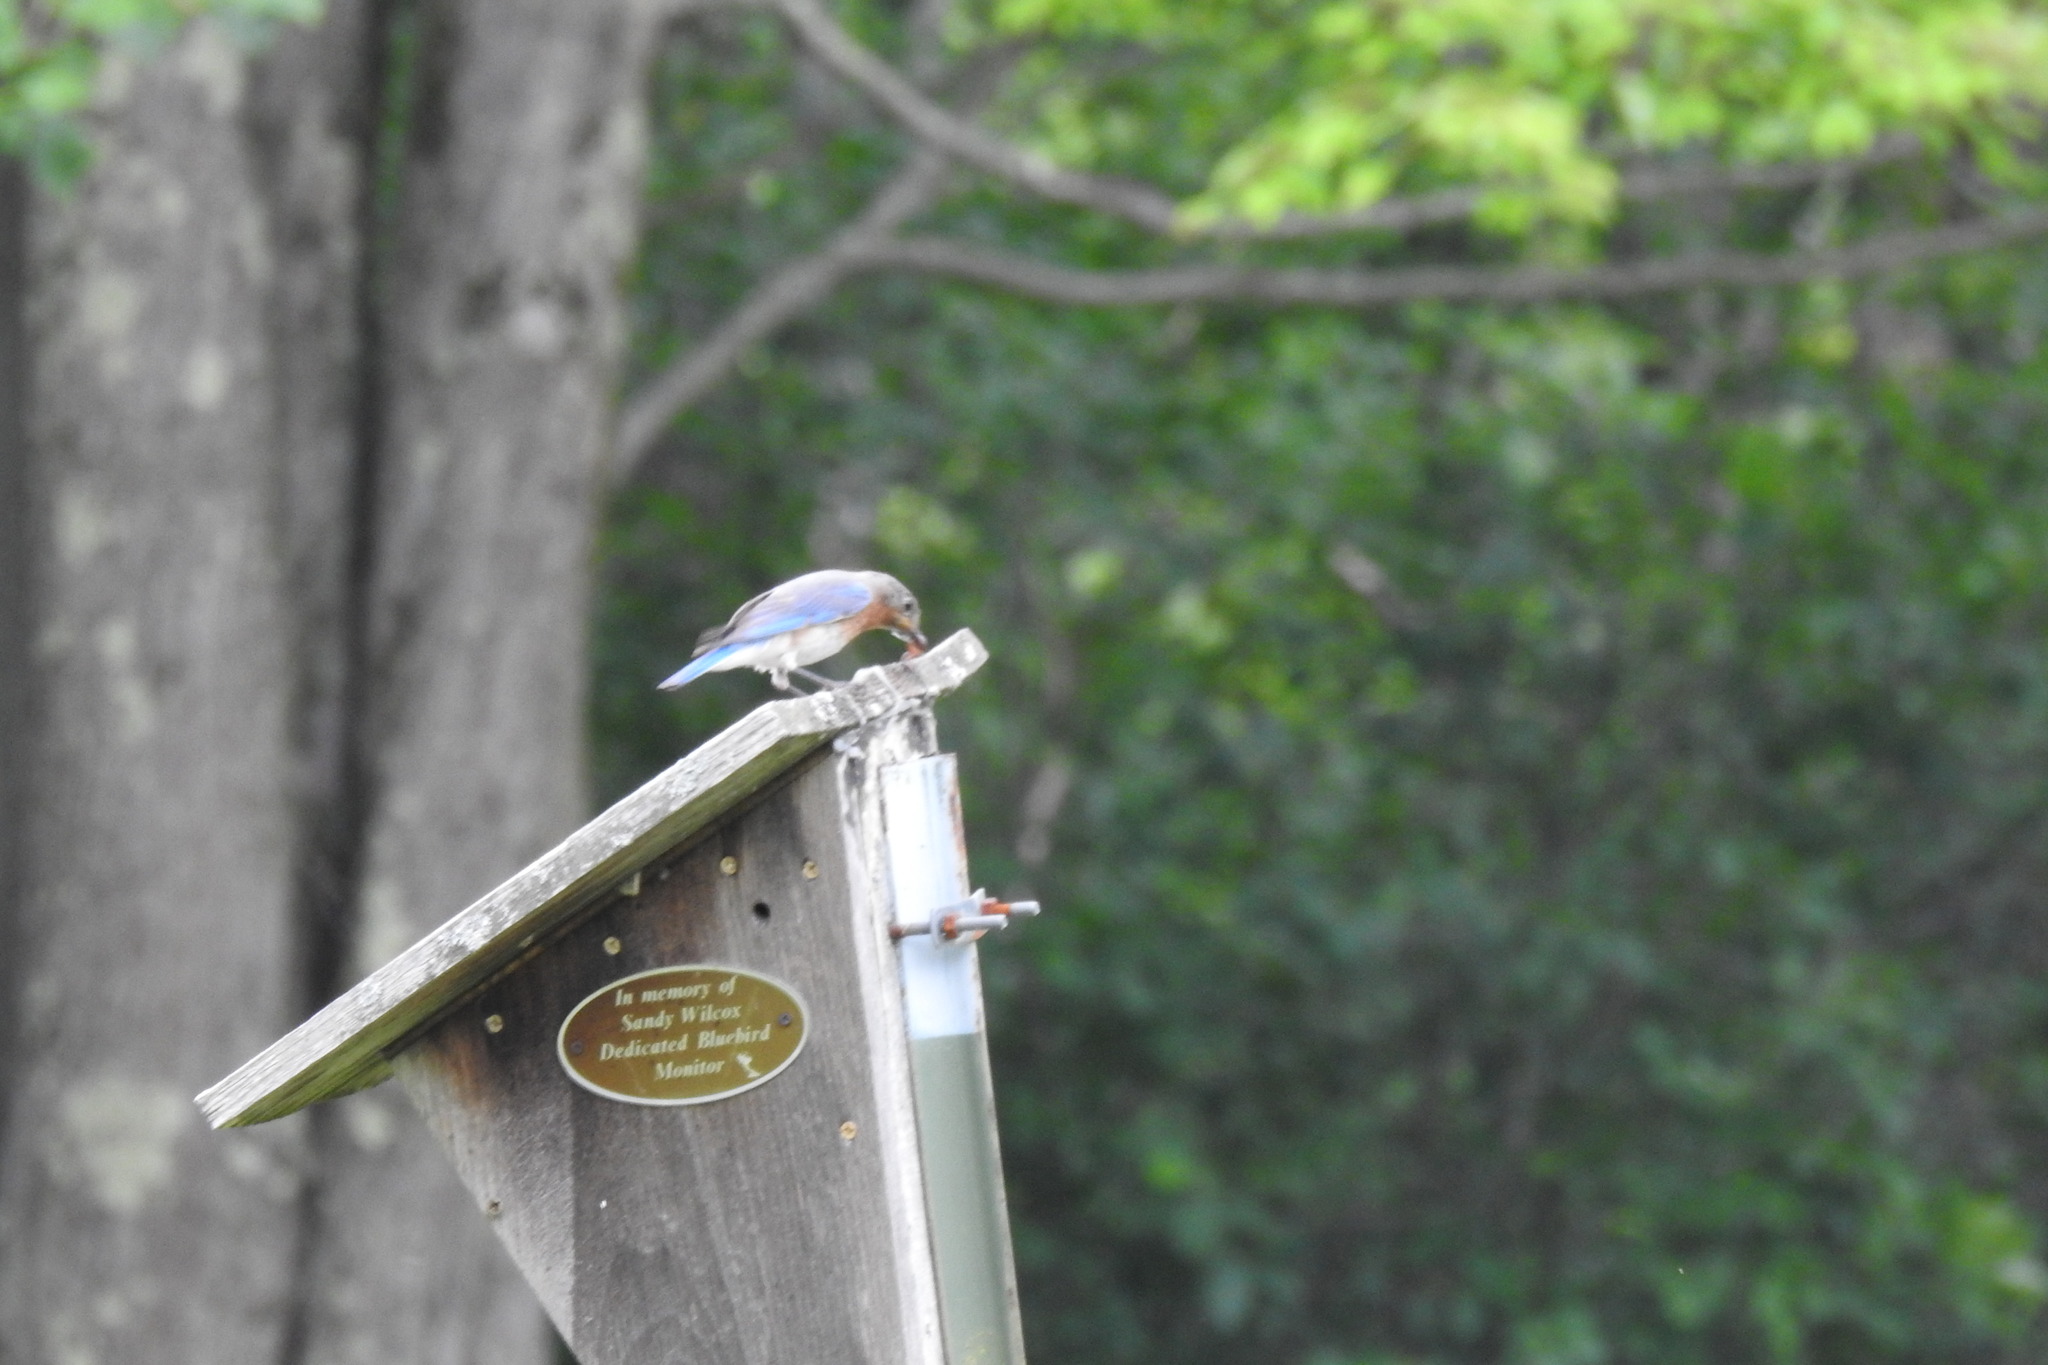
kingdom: Animalia
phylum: Chordata
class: Aves
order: Passeriformes
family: Turdidae
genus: Sialia
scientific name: Sialia sialis
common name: Eastern bluebird
